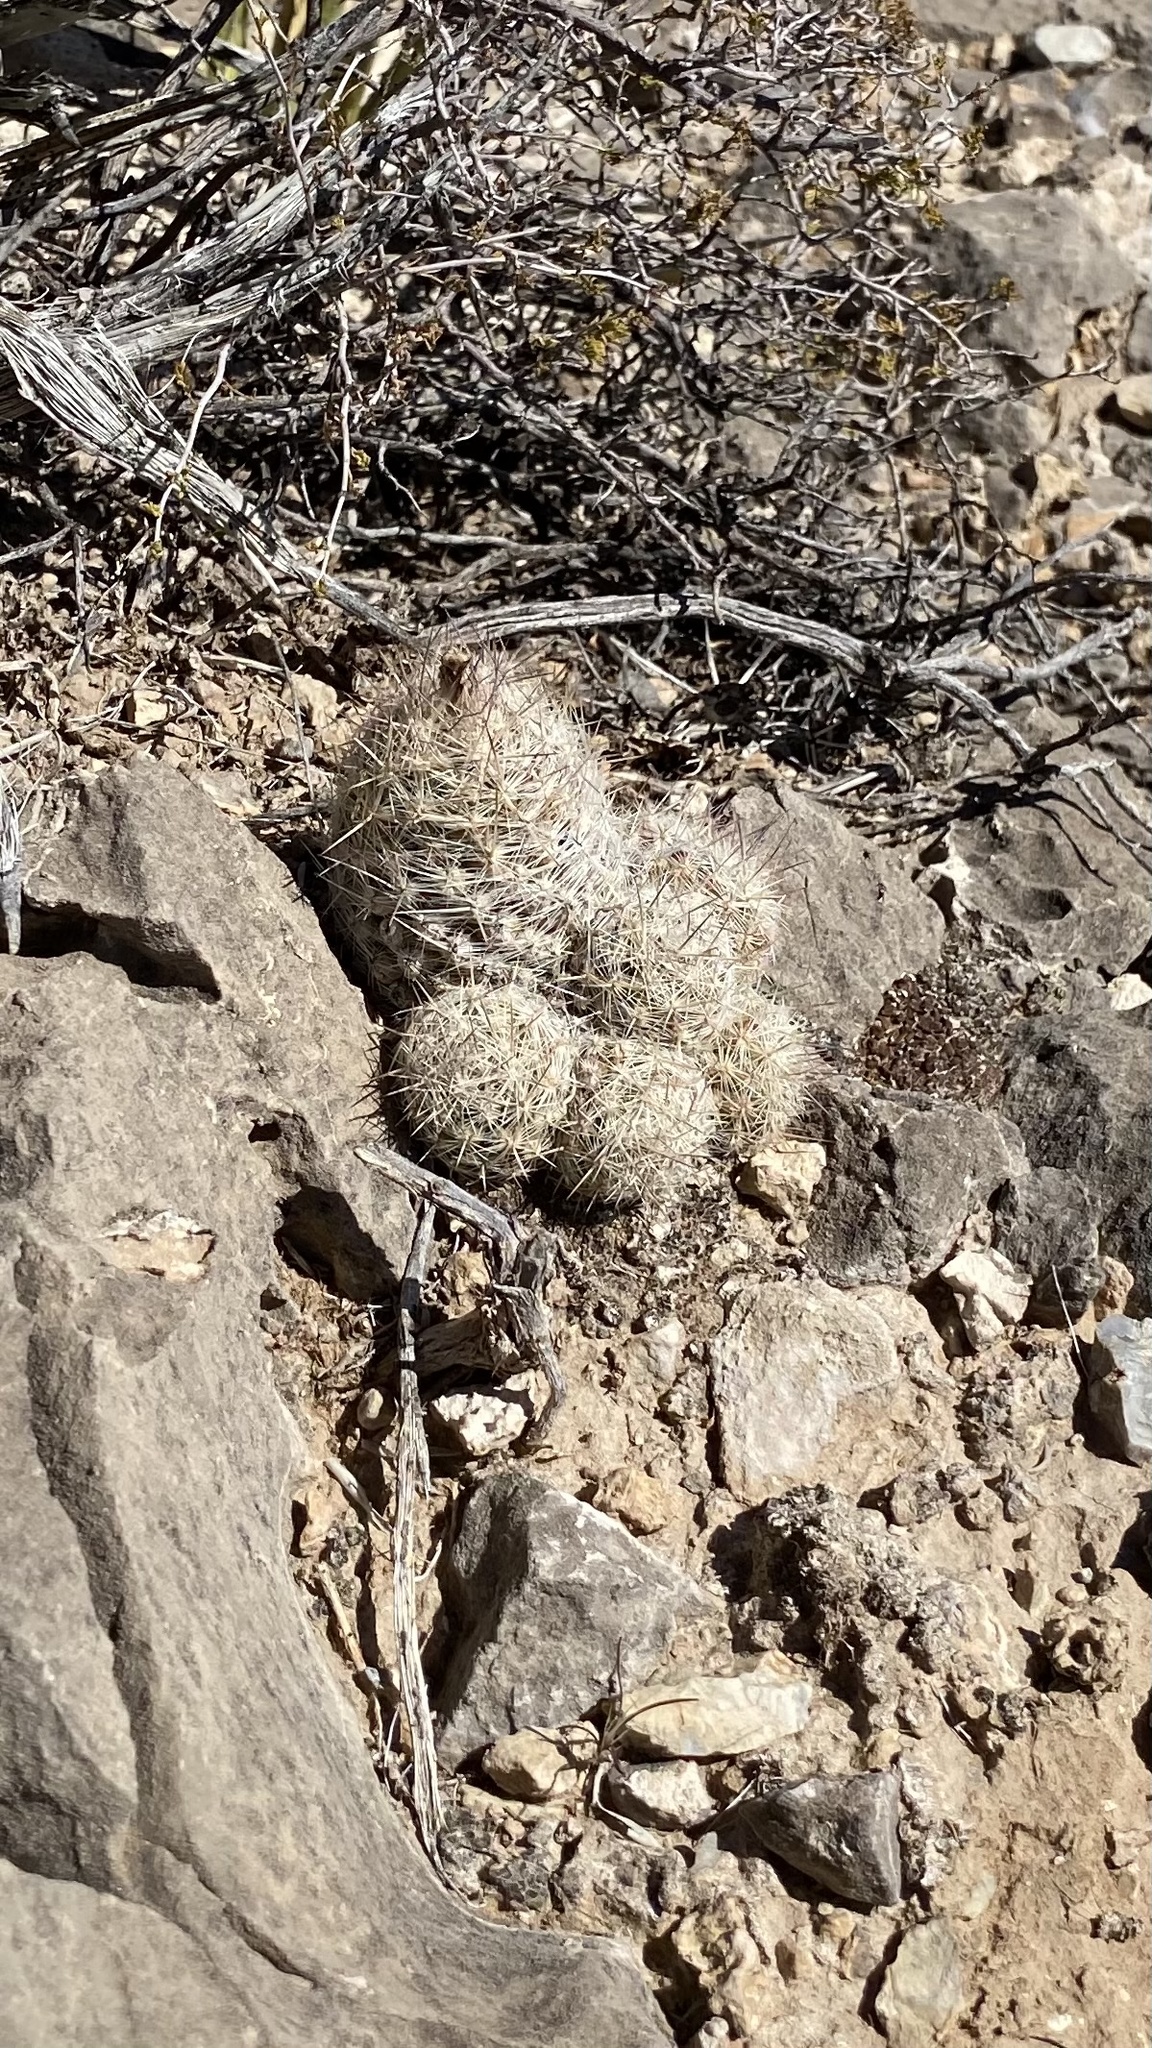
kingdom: Plantae
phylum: Tracheophyta
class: Magnoliopsida
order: Caryophyllales
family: Cactaceae
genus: Pelecyphora
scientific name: Pelecyphora tuberculosa
